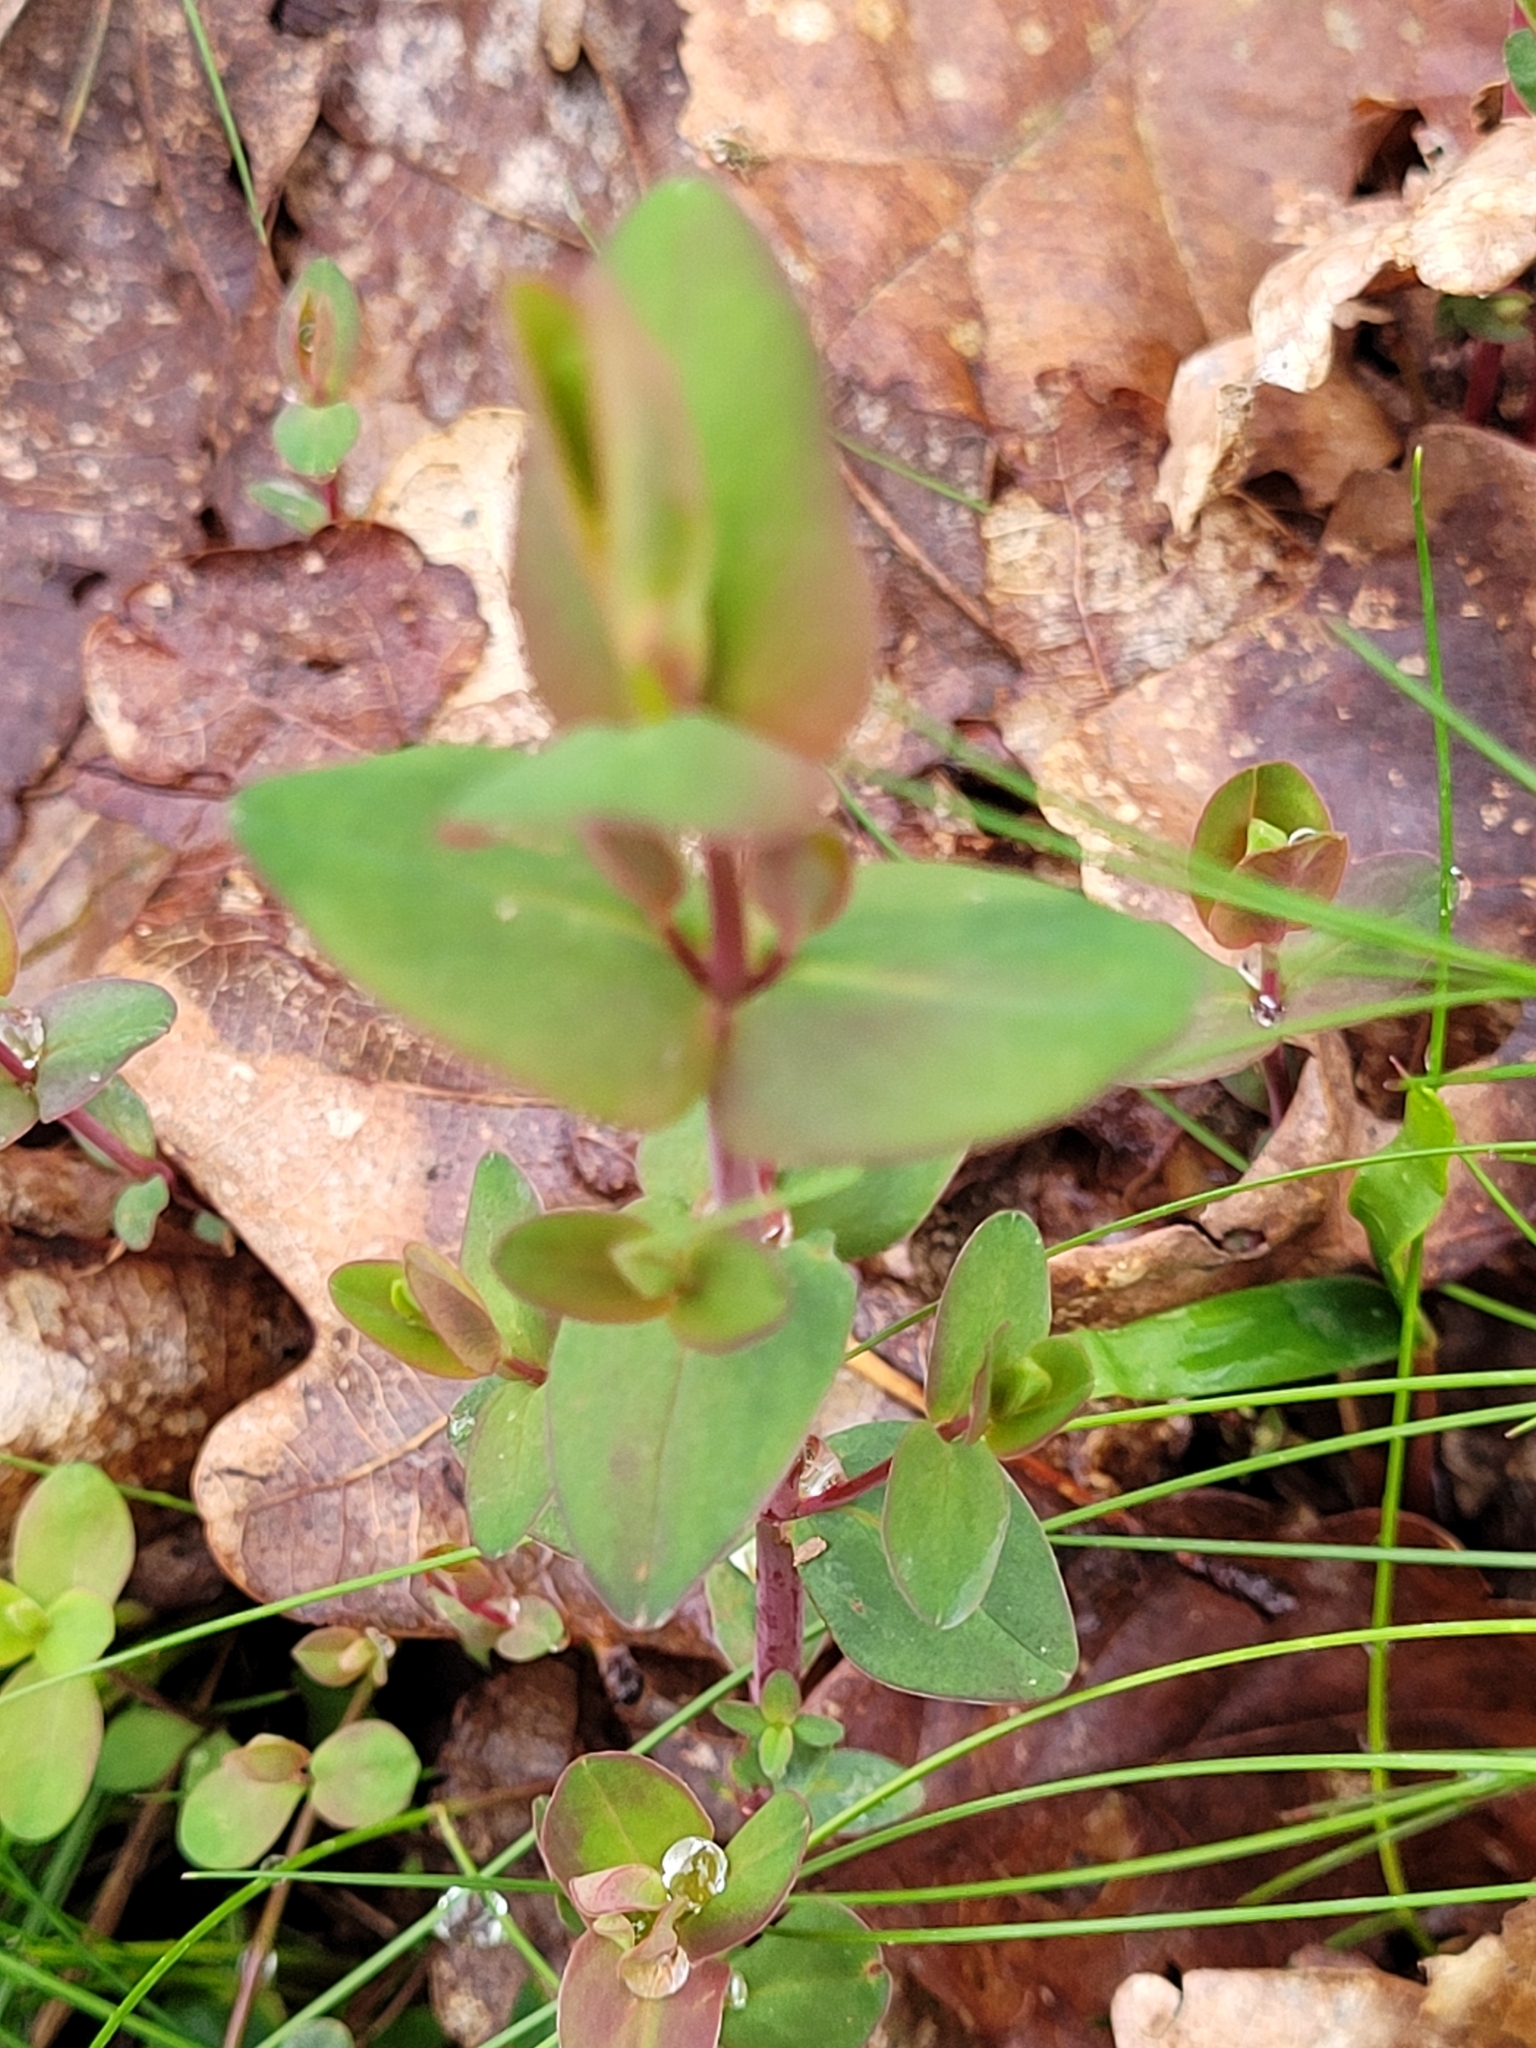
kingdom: Plantae
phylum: Tracheophyta
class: Magnoliopsida
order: Malpighiales
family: Hypericaceae
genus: Hypericum
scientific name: Hypericum pulchrum
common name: Slender st. john's-wort
